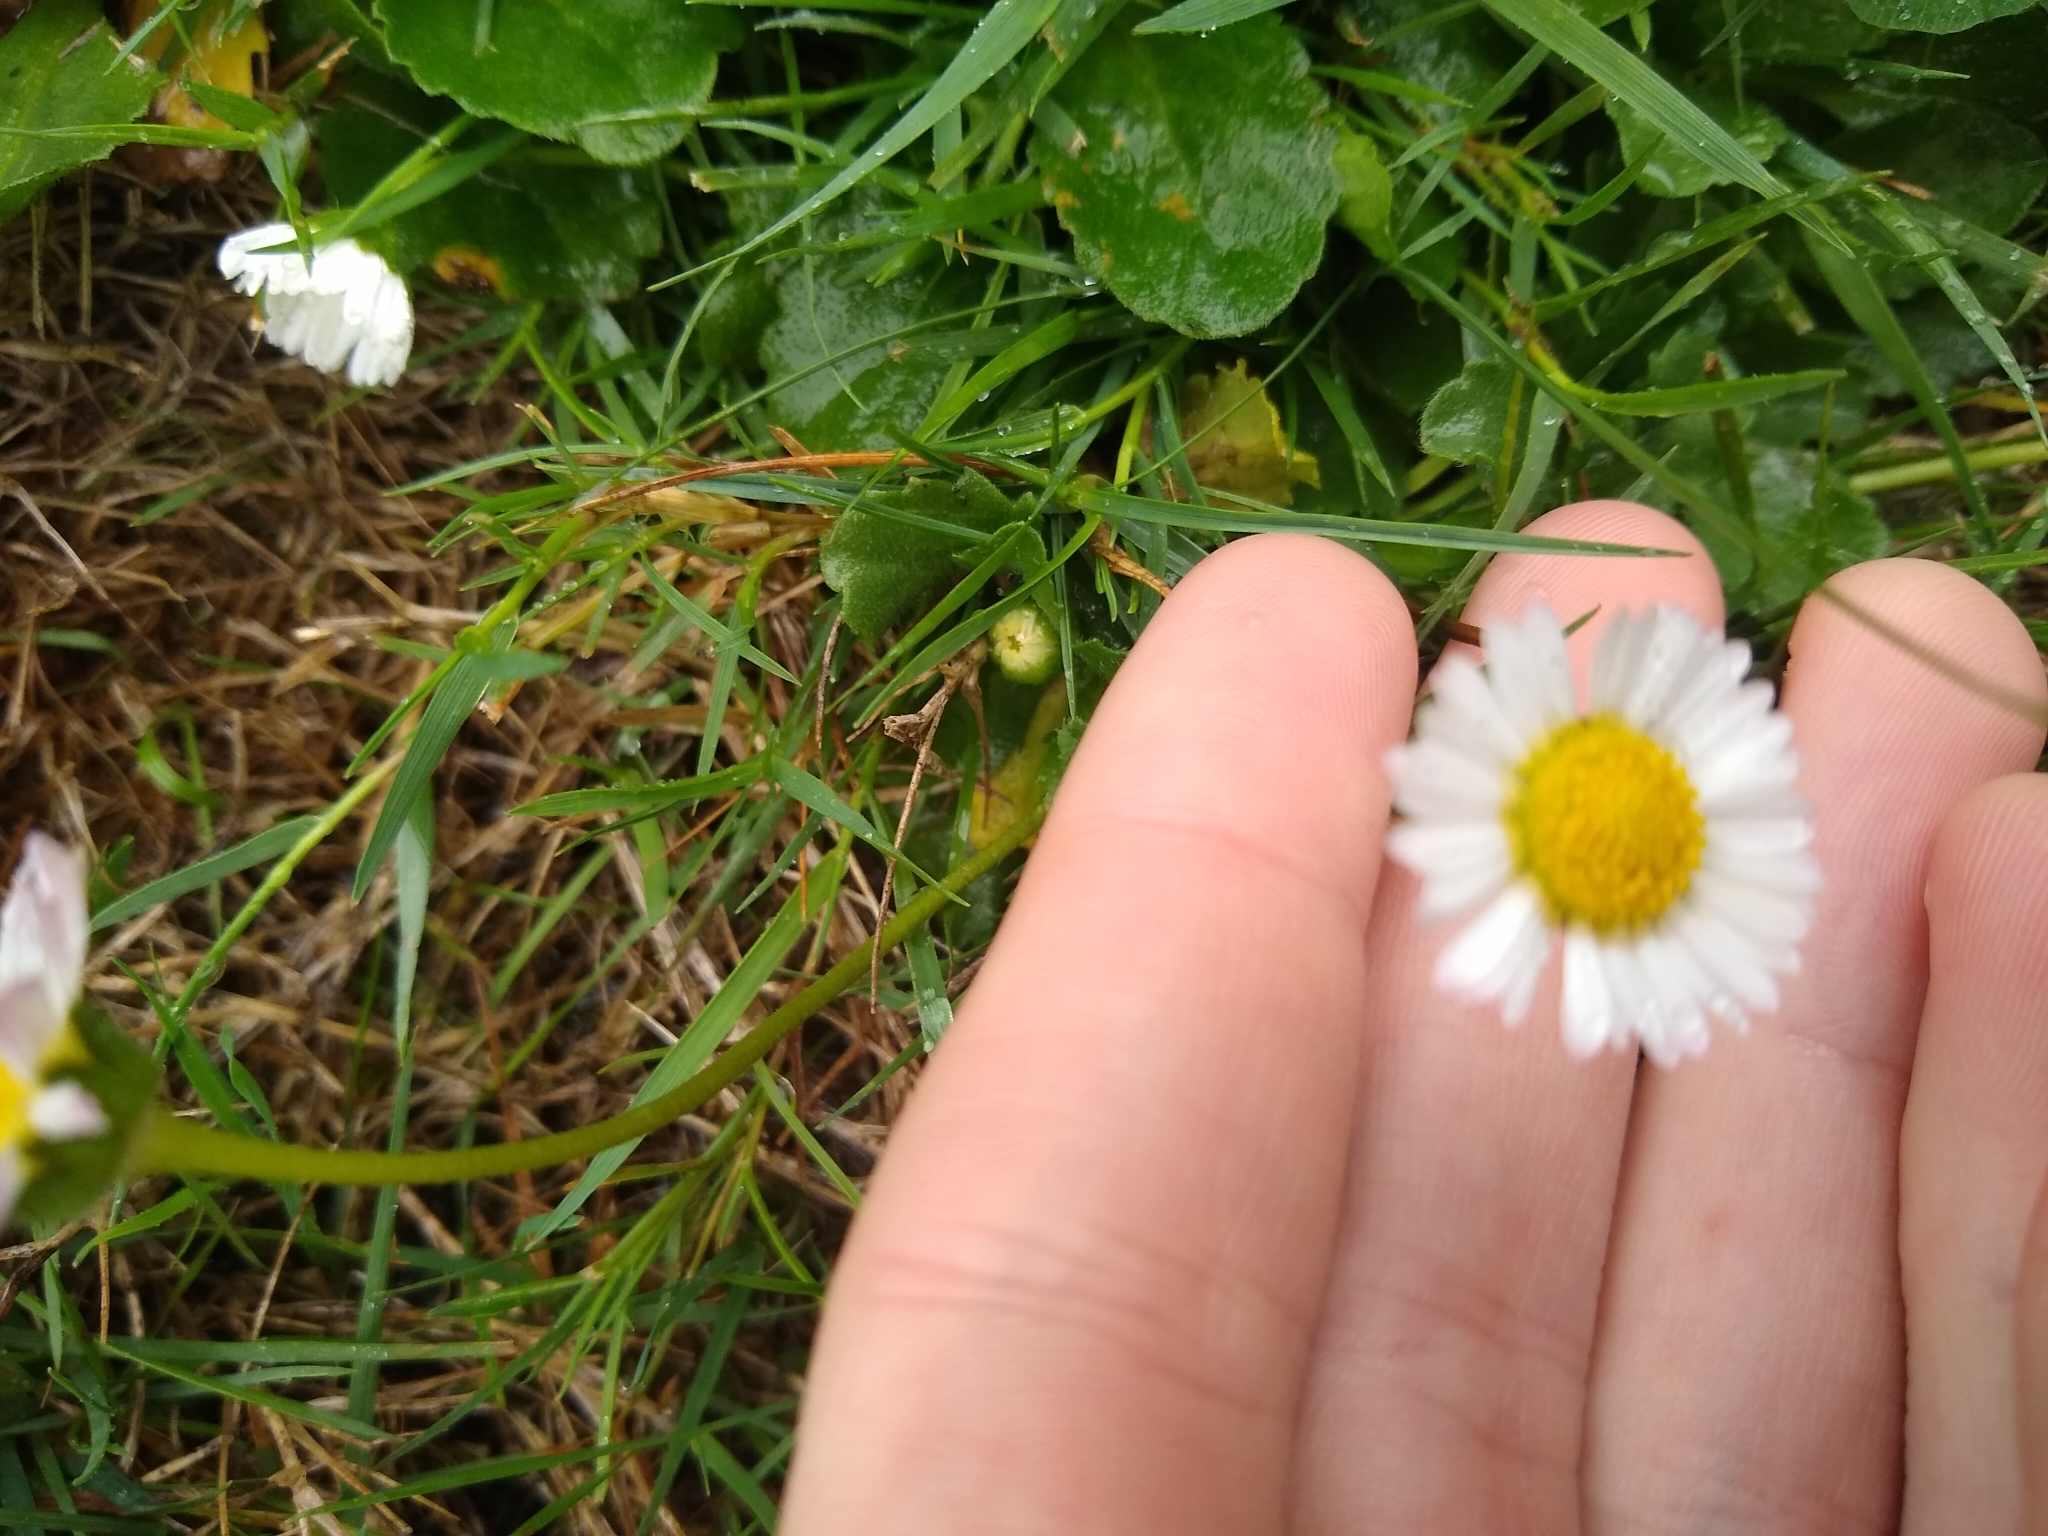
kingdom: Plantae
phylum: Tracheophyta
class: Magnoliopsida
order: Asterales
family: Asteraceae
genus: Bellis
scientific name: Bellis perennis
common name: Lawndaisy
